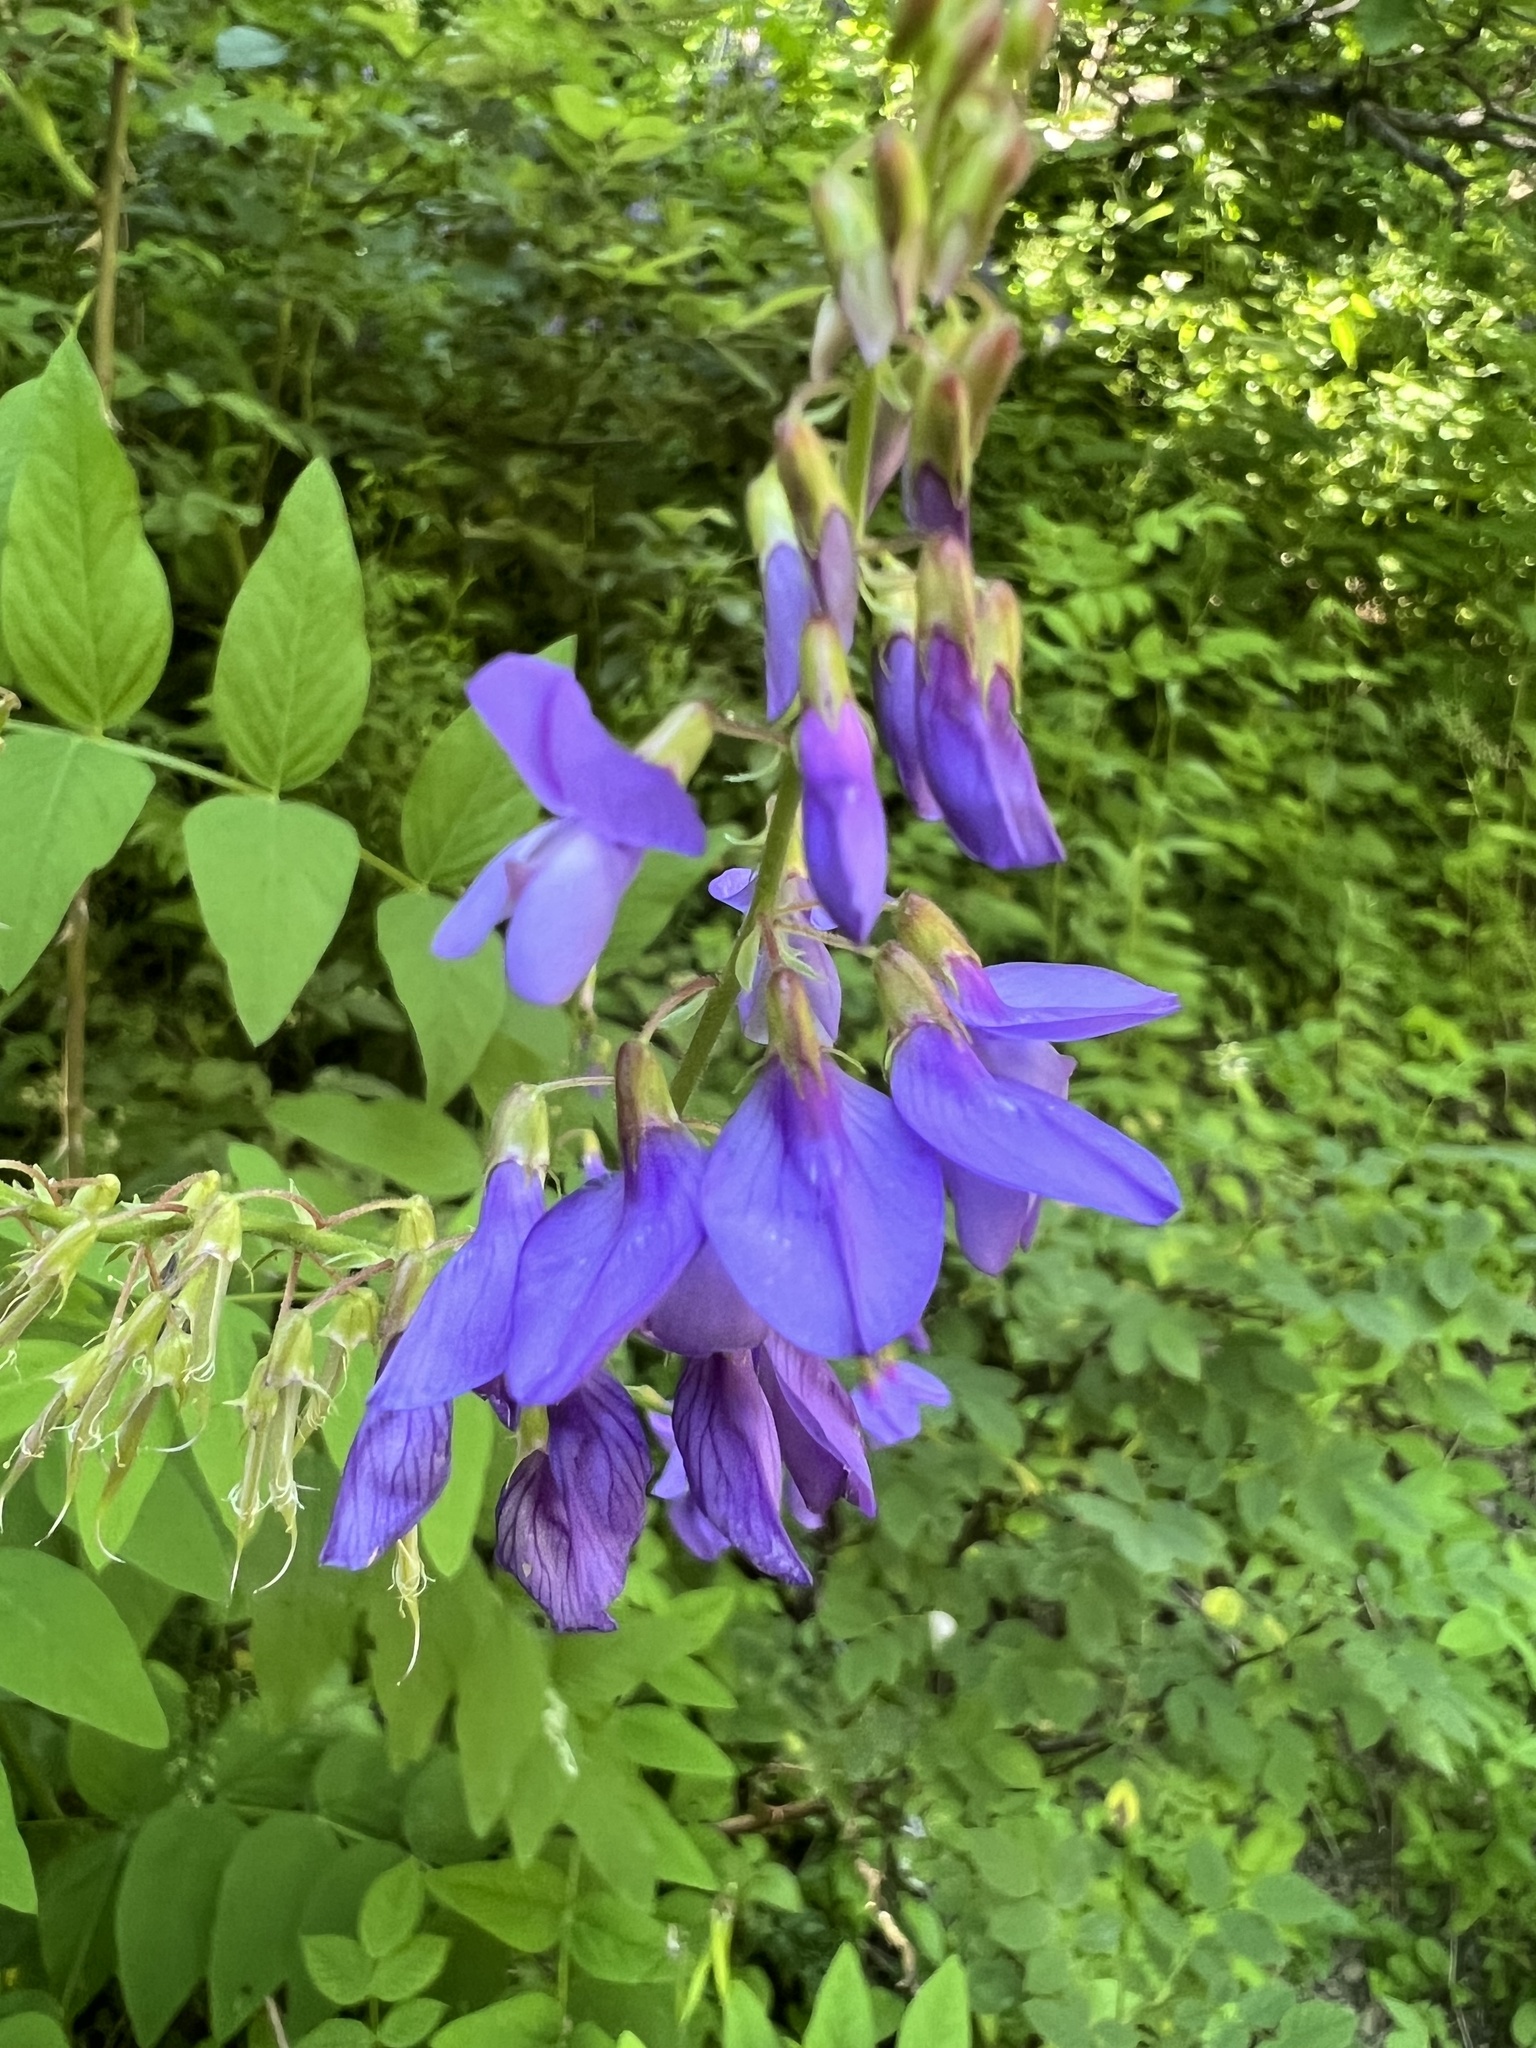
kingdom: Plantae
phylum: Tracheophyta
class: Magnoliopsida
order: Fabales
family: Fabaceae
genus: Galega
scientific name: Galega orientalis
